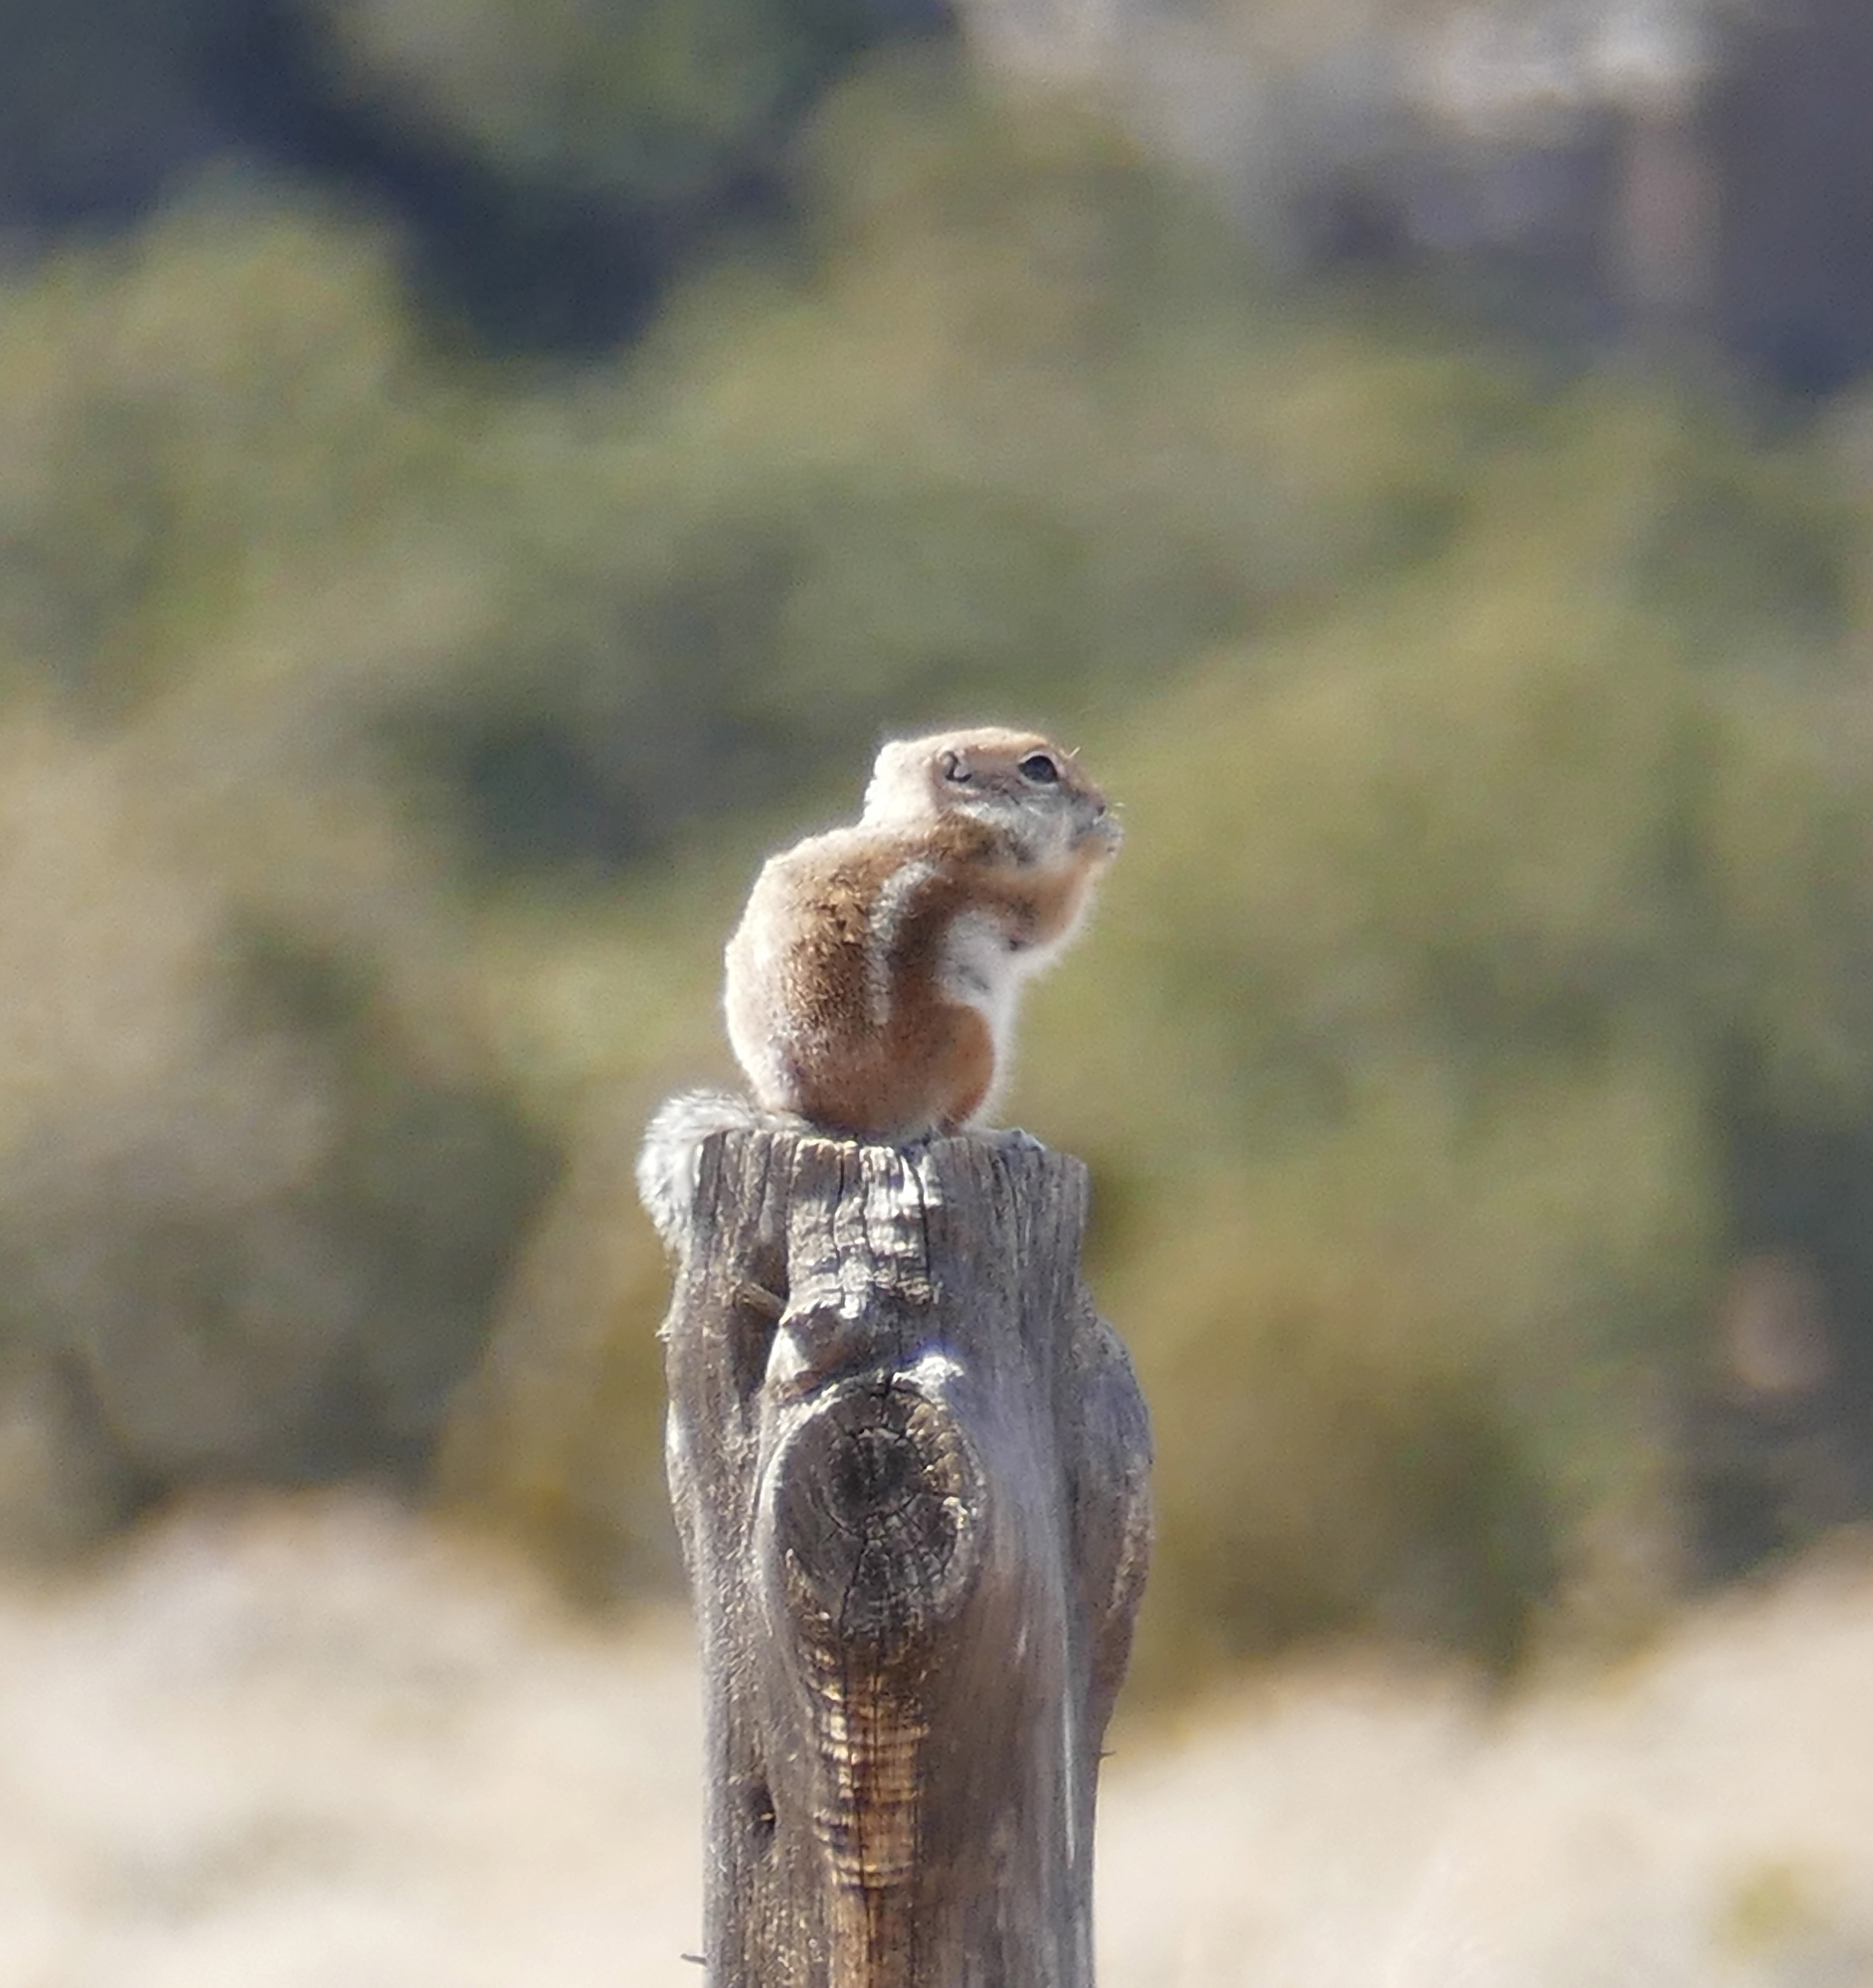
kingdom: Animalia
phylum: Chordata
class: Mammalia
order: Rodentia
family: Sciuridae
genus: Ammospermophilus
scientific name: Ammospermophilus leucurus
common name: White-tailed antelope squirrel
